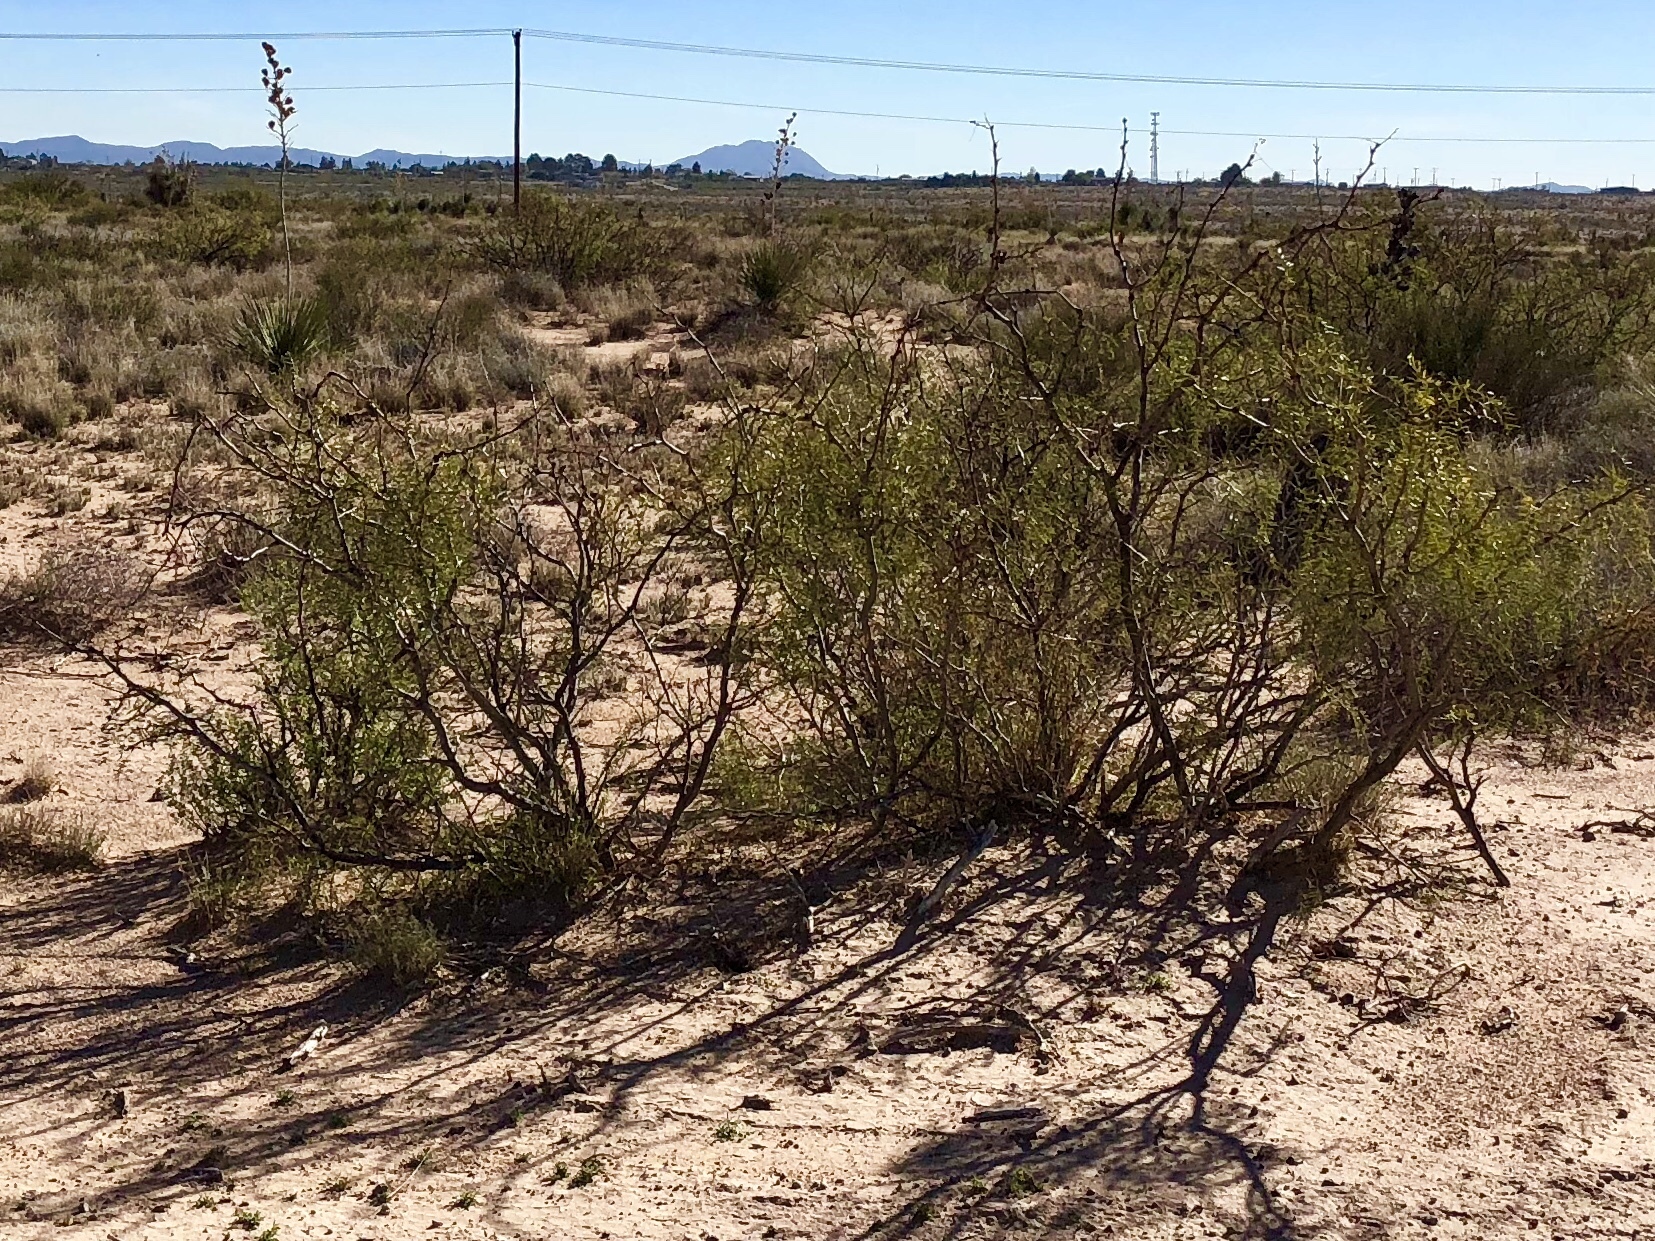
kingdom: Plantae
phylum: Tracheophyta
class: Magnoliopsida
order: Zygophyllales
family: Zygophyllaceae
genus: Larrea
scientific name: Larrea tridentata
